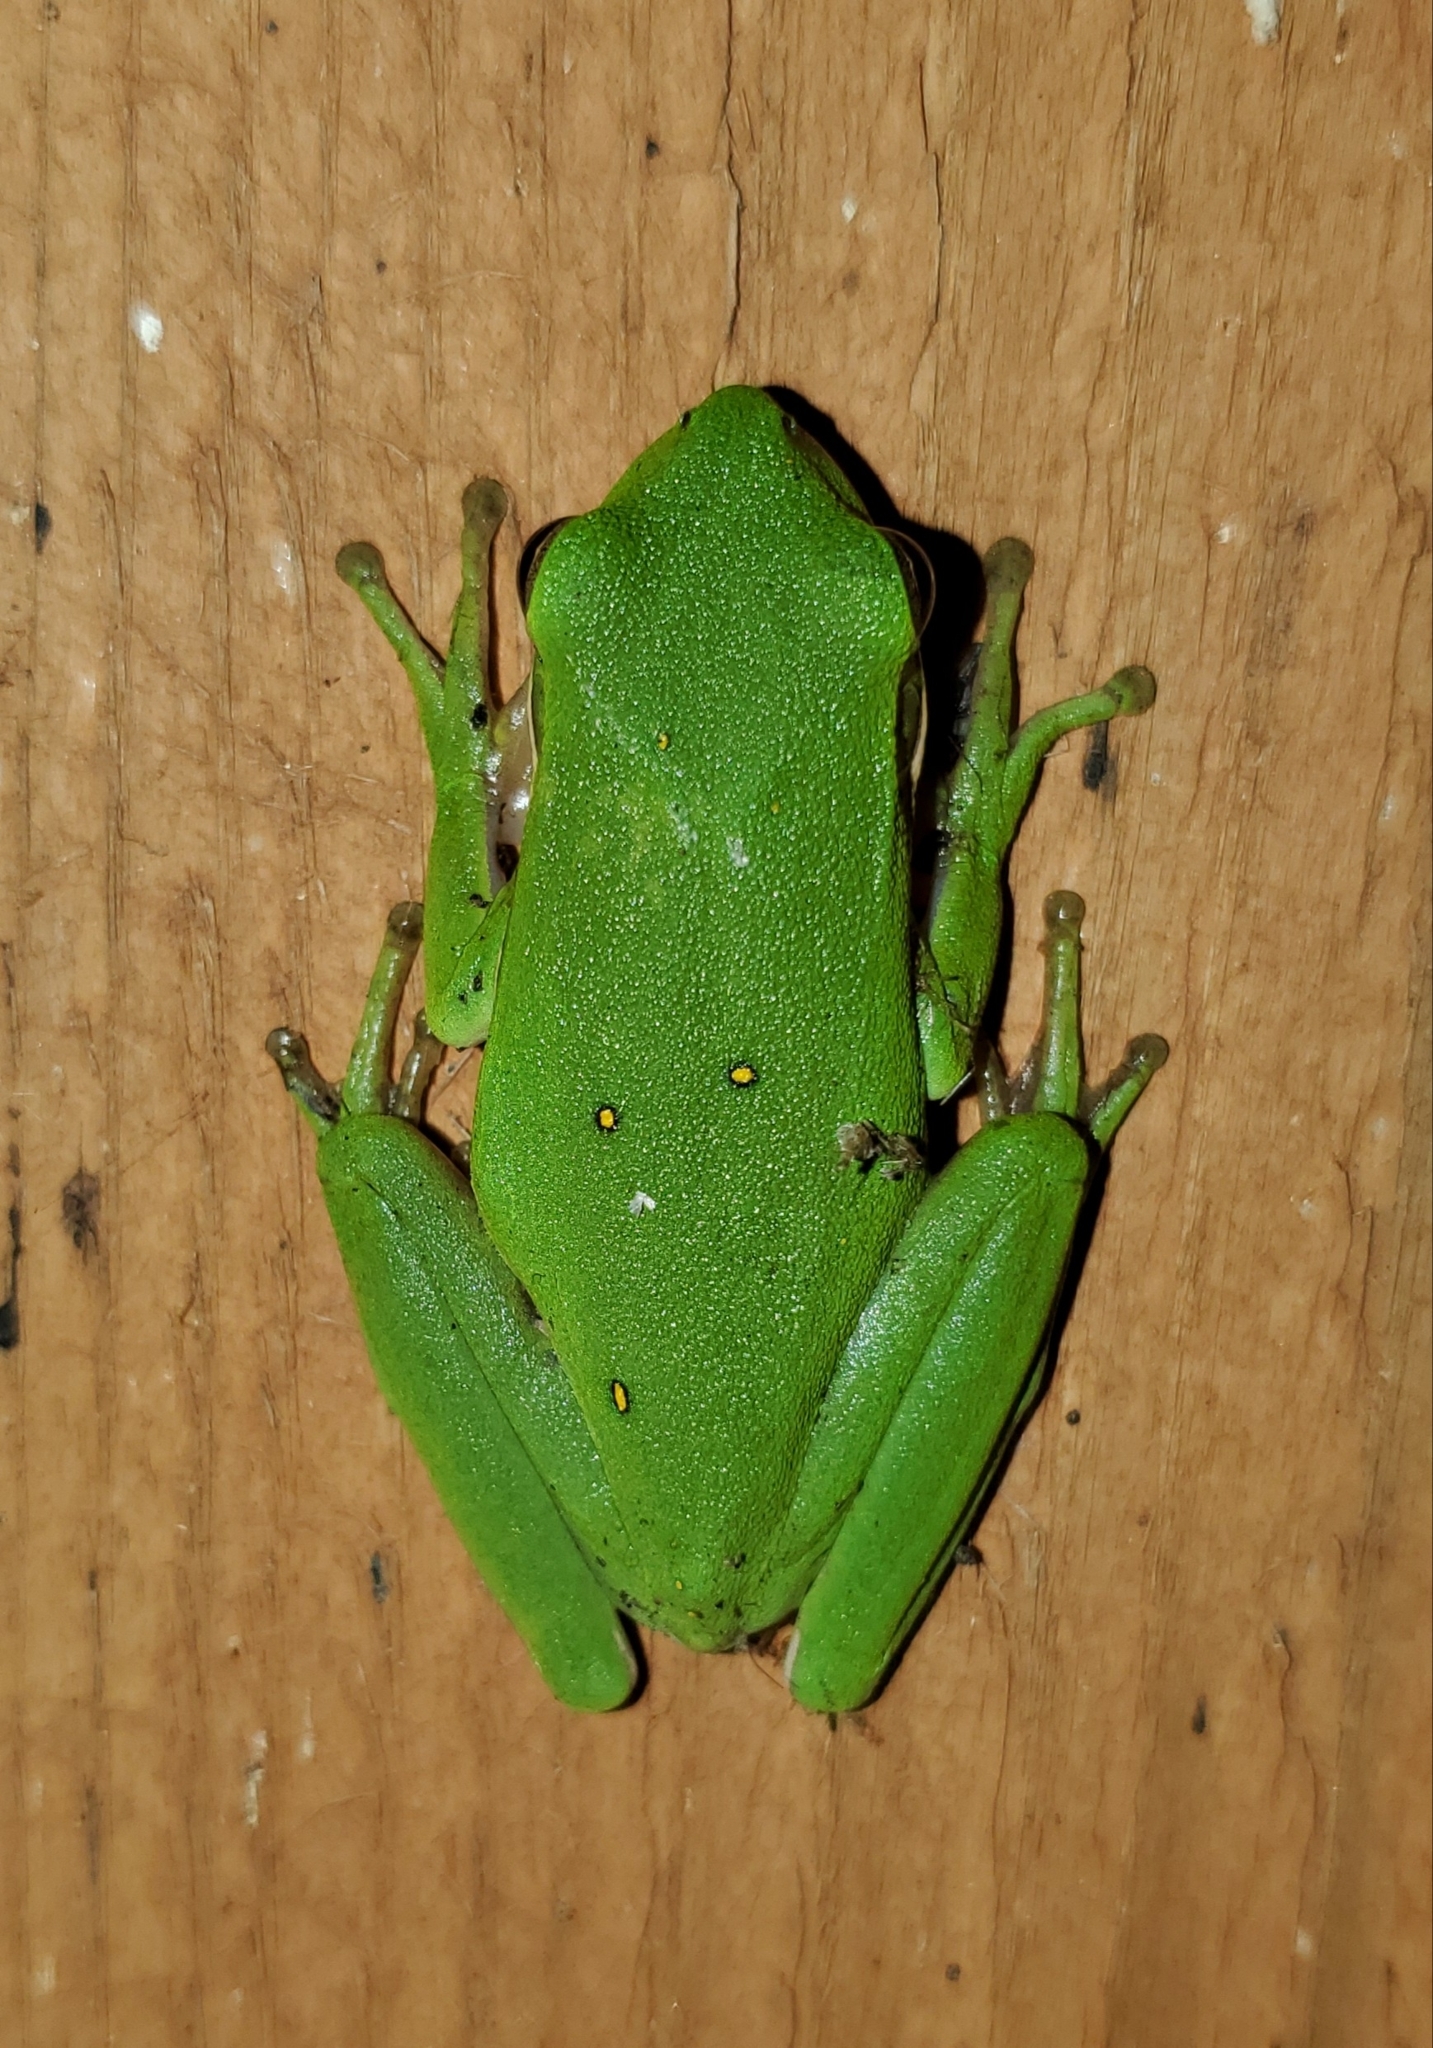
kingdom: Animalia
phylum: Chordata
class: Amphibia
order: Anura
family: Hylidae
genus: Dryophytes
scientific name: Dryophytes cinereus
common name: Green treefrog
